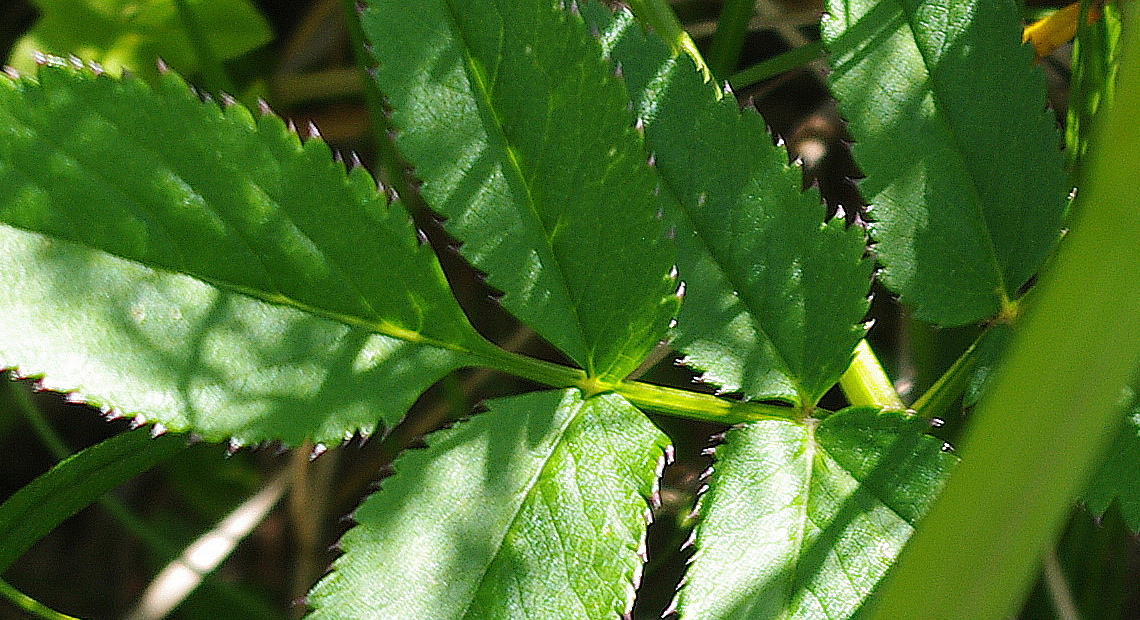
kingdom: Plantae
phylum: Tracheophyta
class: Magnoliopsida
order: Apiales
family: Apiaceae
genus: Angelica
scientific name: Angelica sylvestris
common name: Wild angelica
